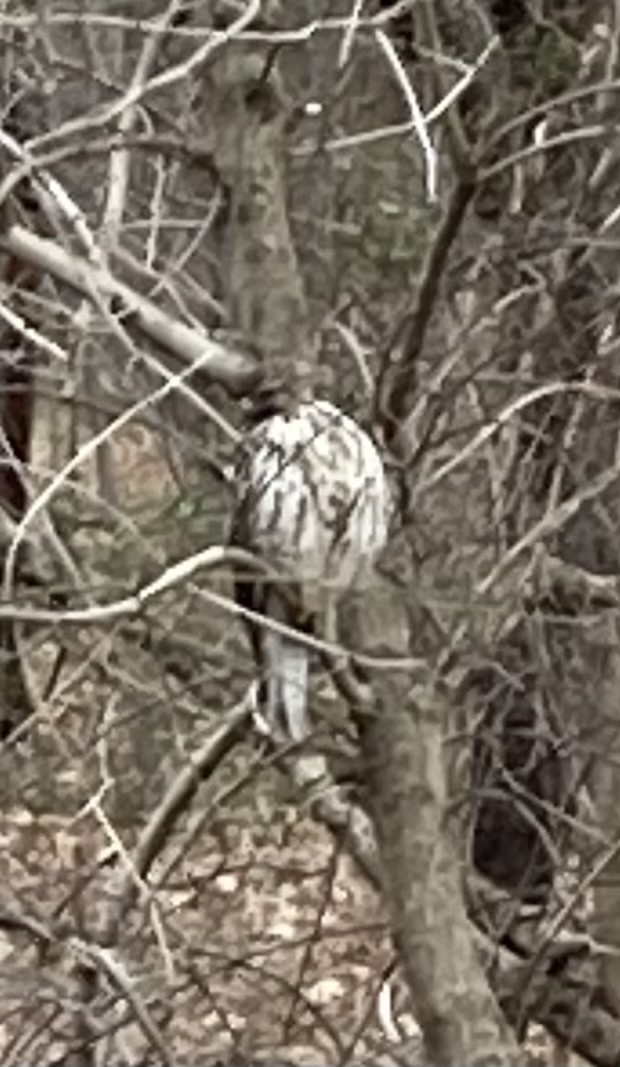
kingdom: Animalia
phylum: Chordata
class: Aves
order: Accipitriformes
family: Accipitridae
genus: Buteo
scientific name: Buteo lineatus
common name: Red-shouldered hawk
